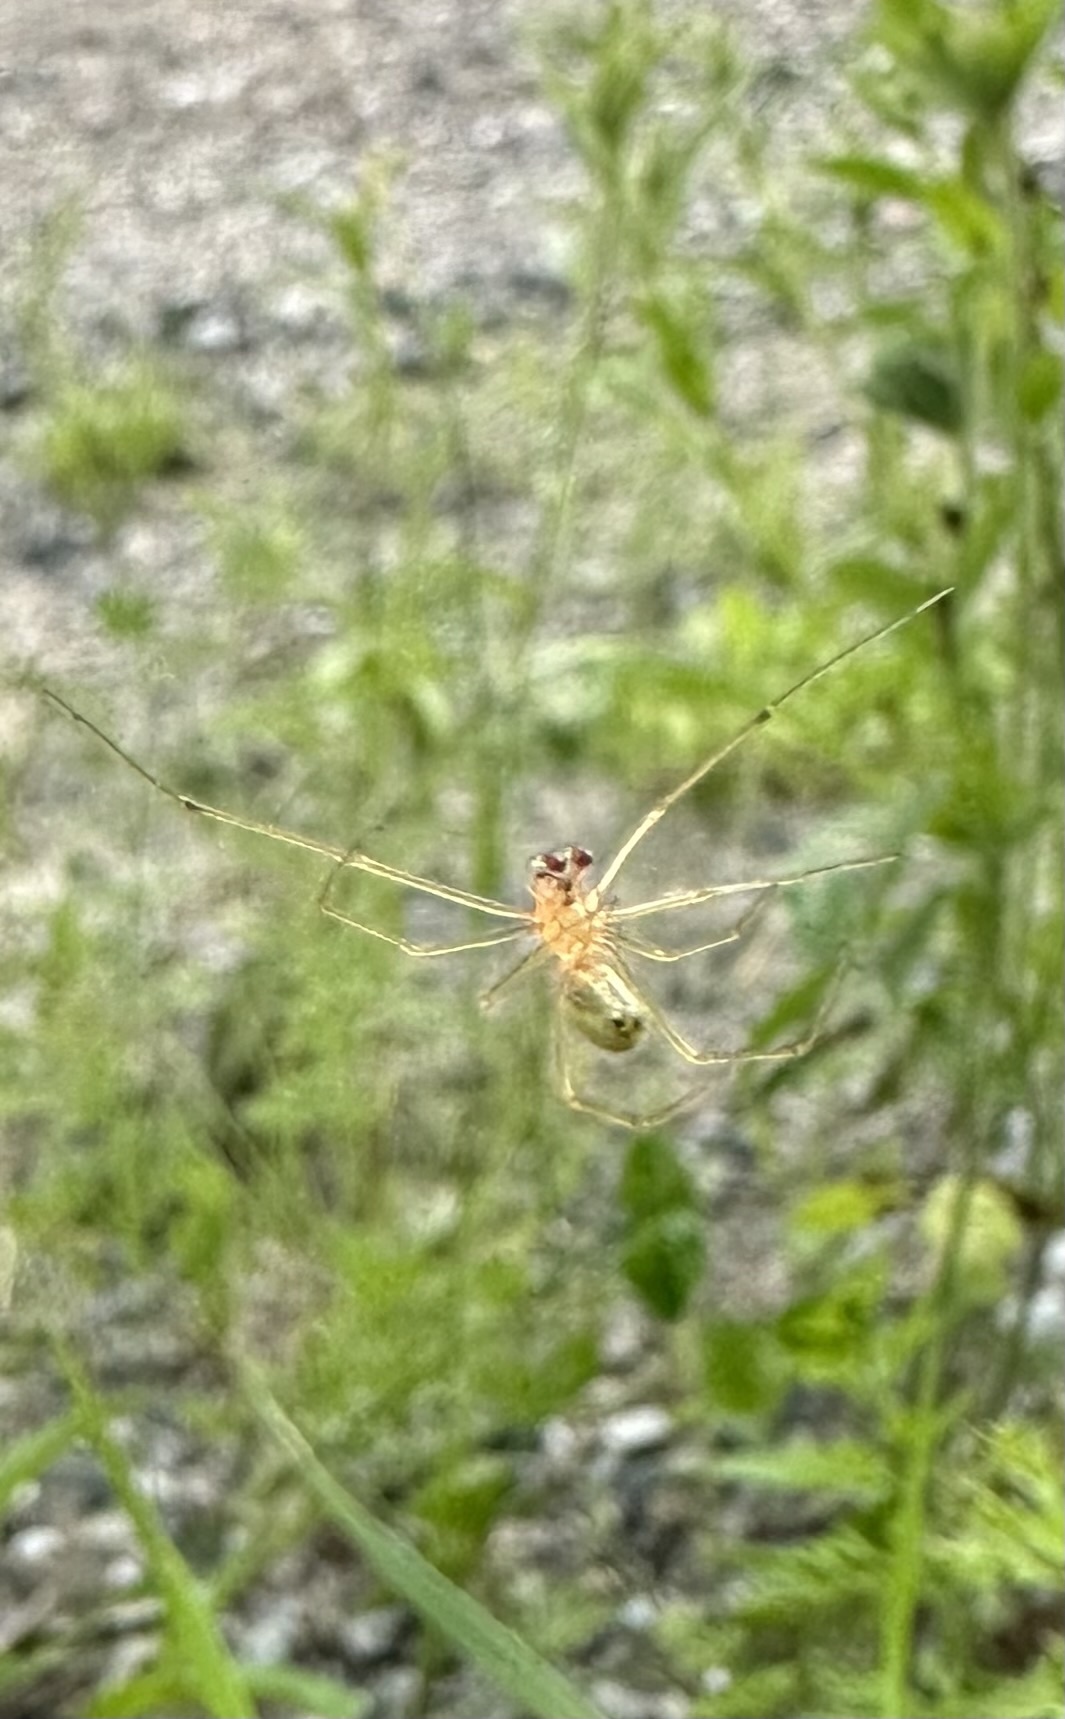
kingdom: Animalia
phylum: Arthropoda
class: Arachnida
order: Araneae
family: Theridiidae
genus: Enoplognatha
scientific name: Enoplognatha ovata
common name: Common candy-striped spider
